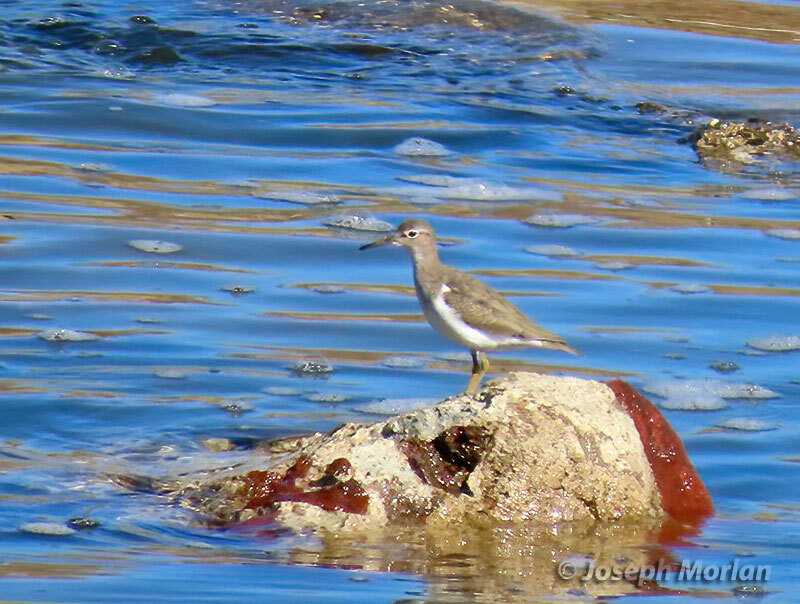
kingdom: Animalia
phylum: Chordata
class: Aves
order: Charadriiformes
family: Scolopacidae
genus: Actitis
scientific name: Actitis macularius
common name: Spotted sandpiper
